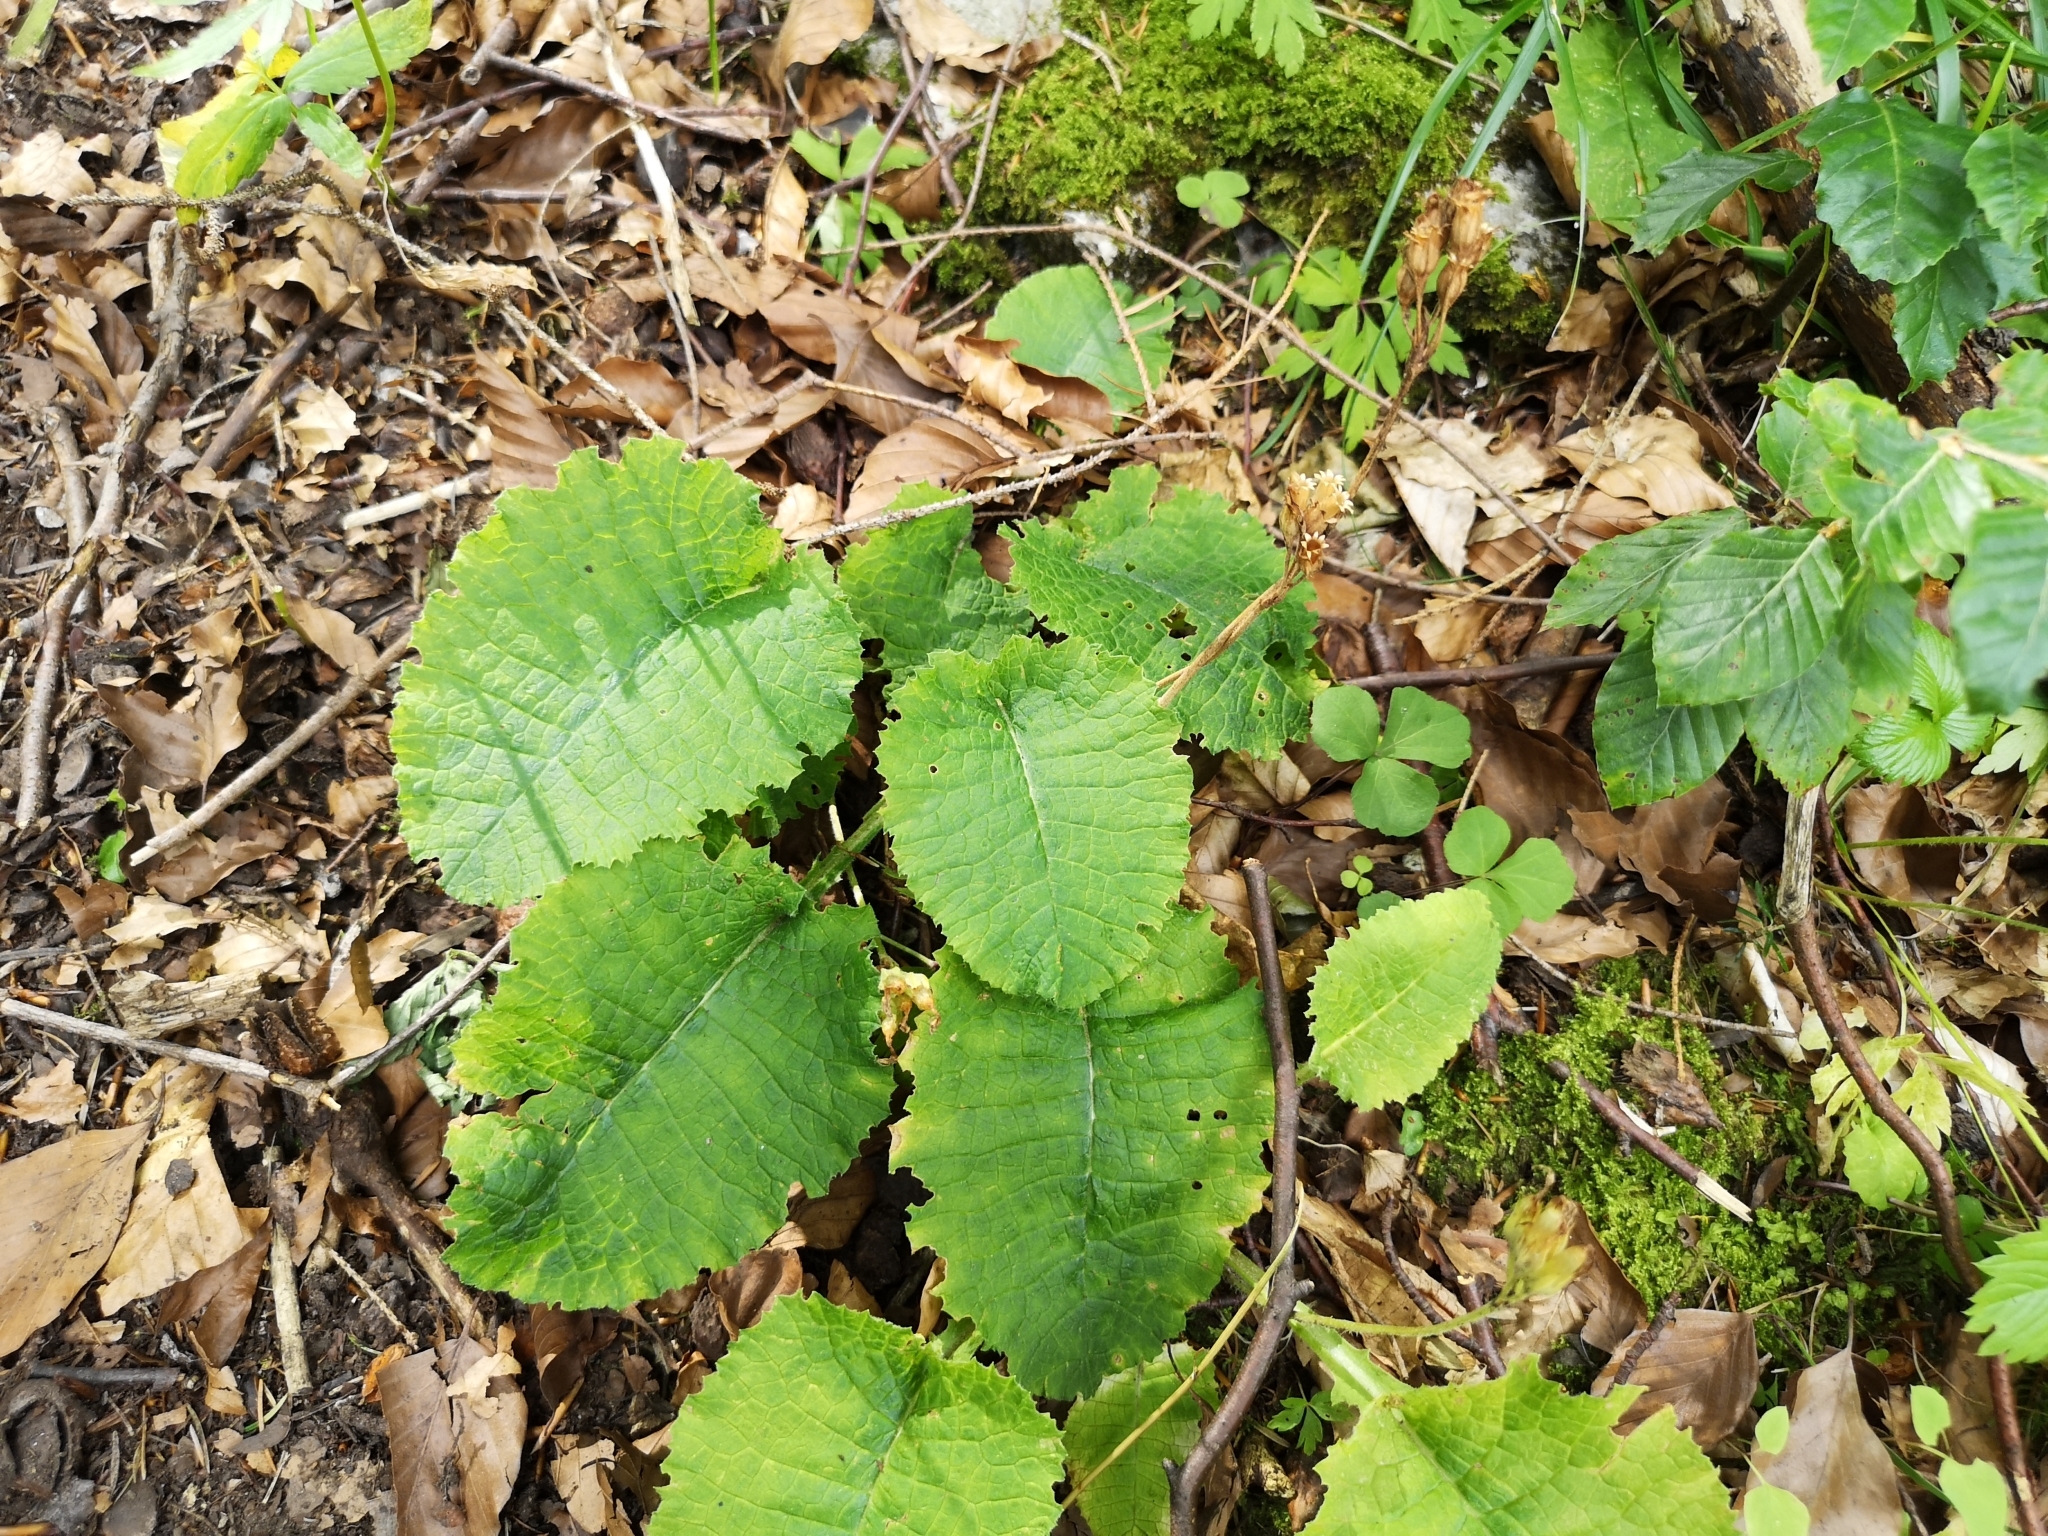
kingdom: Plantae
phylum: Tracheophyta
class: Magnoliopsida
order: Ericales
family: Primulaceae
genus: Primula
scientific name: Primula elatior
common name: Oxlip
